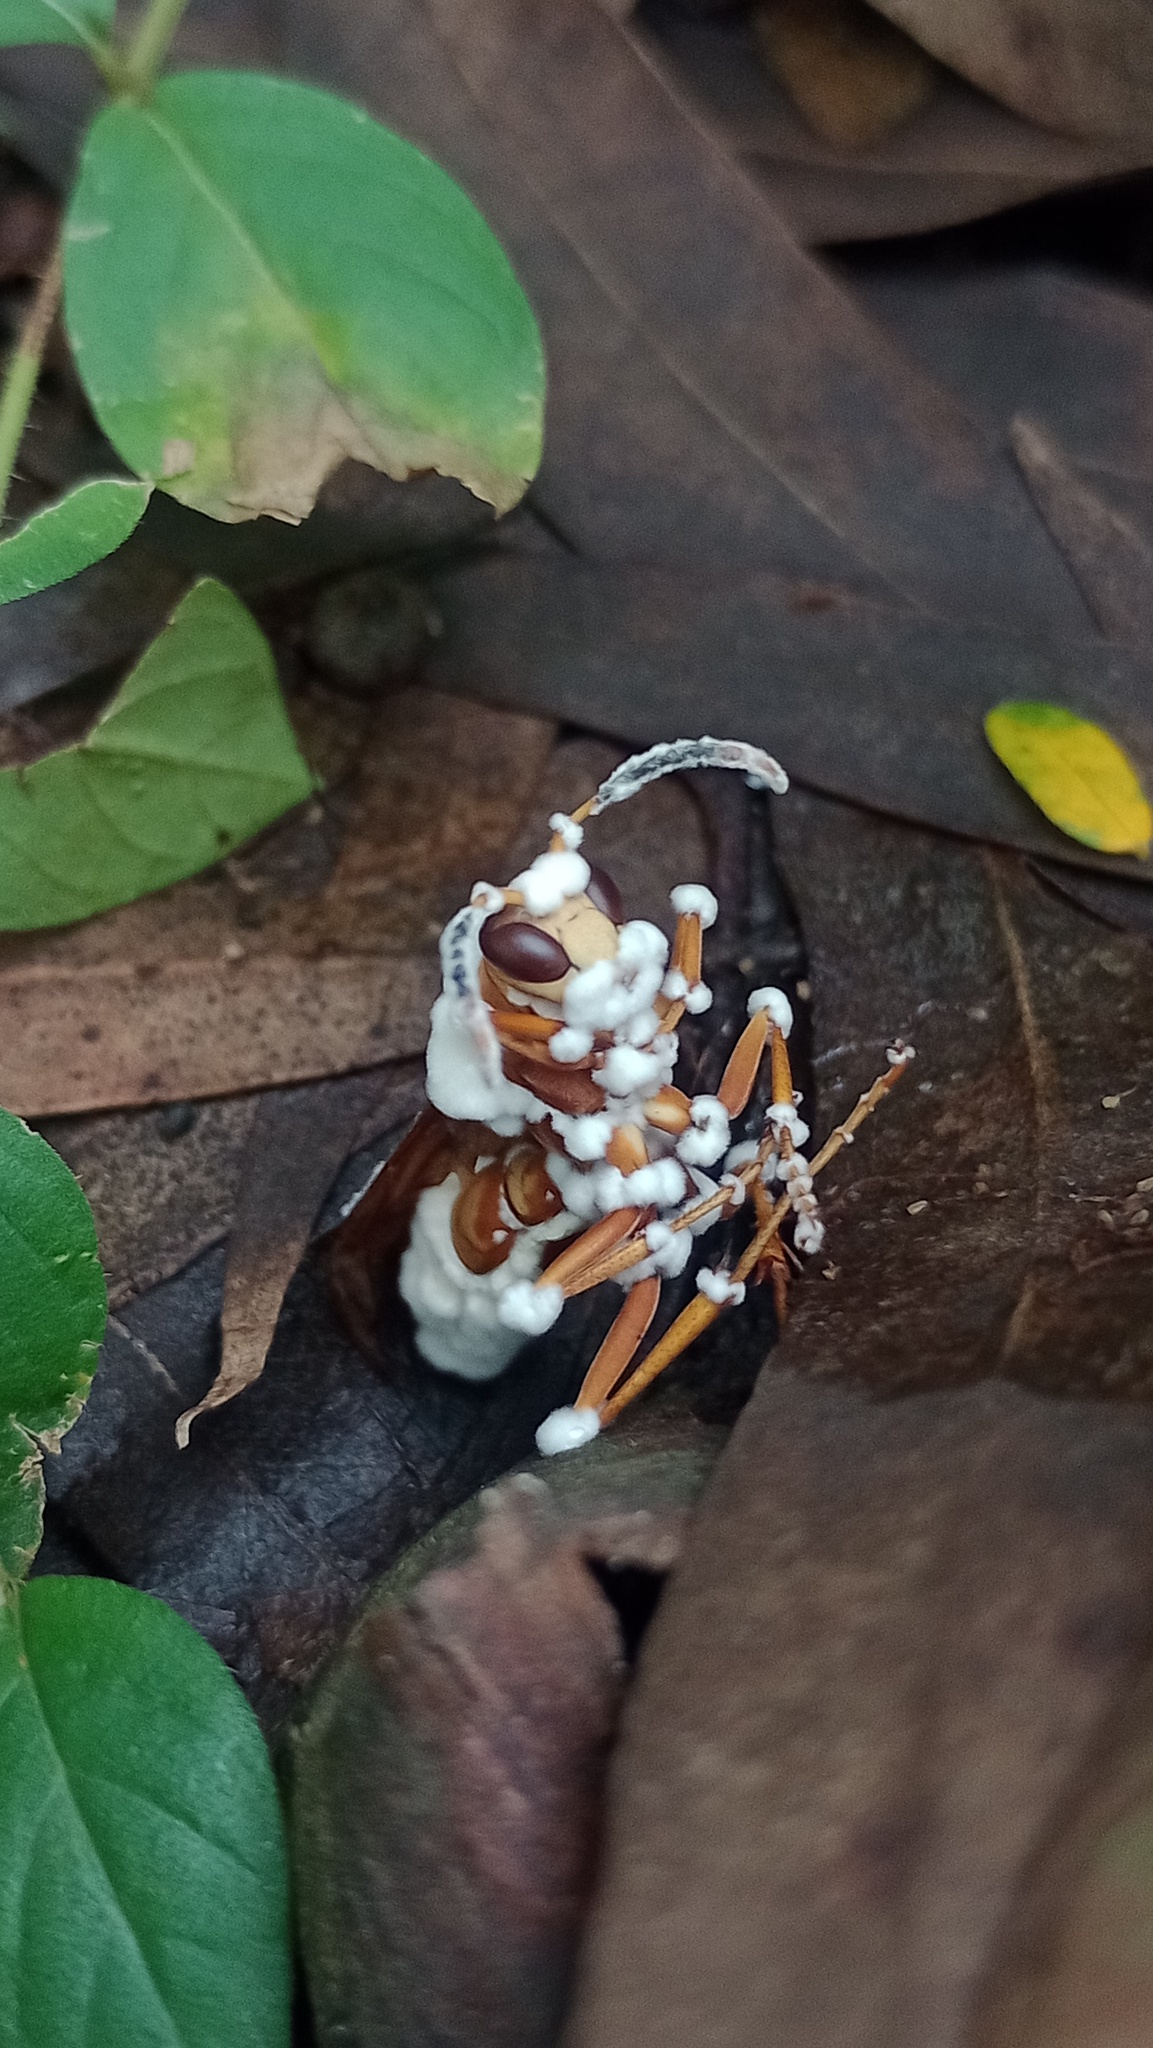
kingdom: Fungi
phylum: Ascomycota
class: Sordariomycetes
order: Hypocreales
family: Cordycipitaceae
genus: Beauveria
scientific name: Beauveria bassiana
